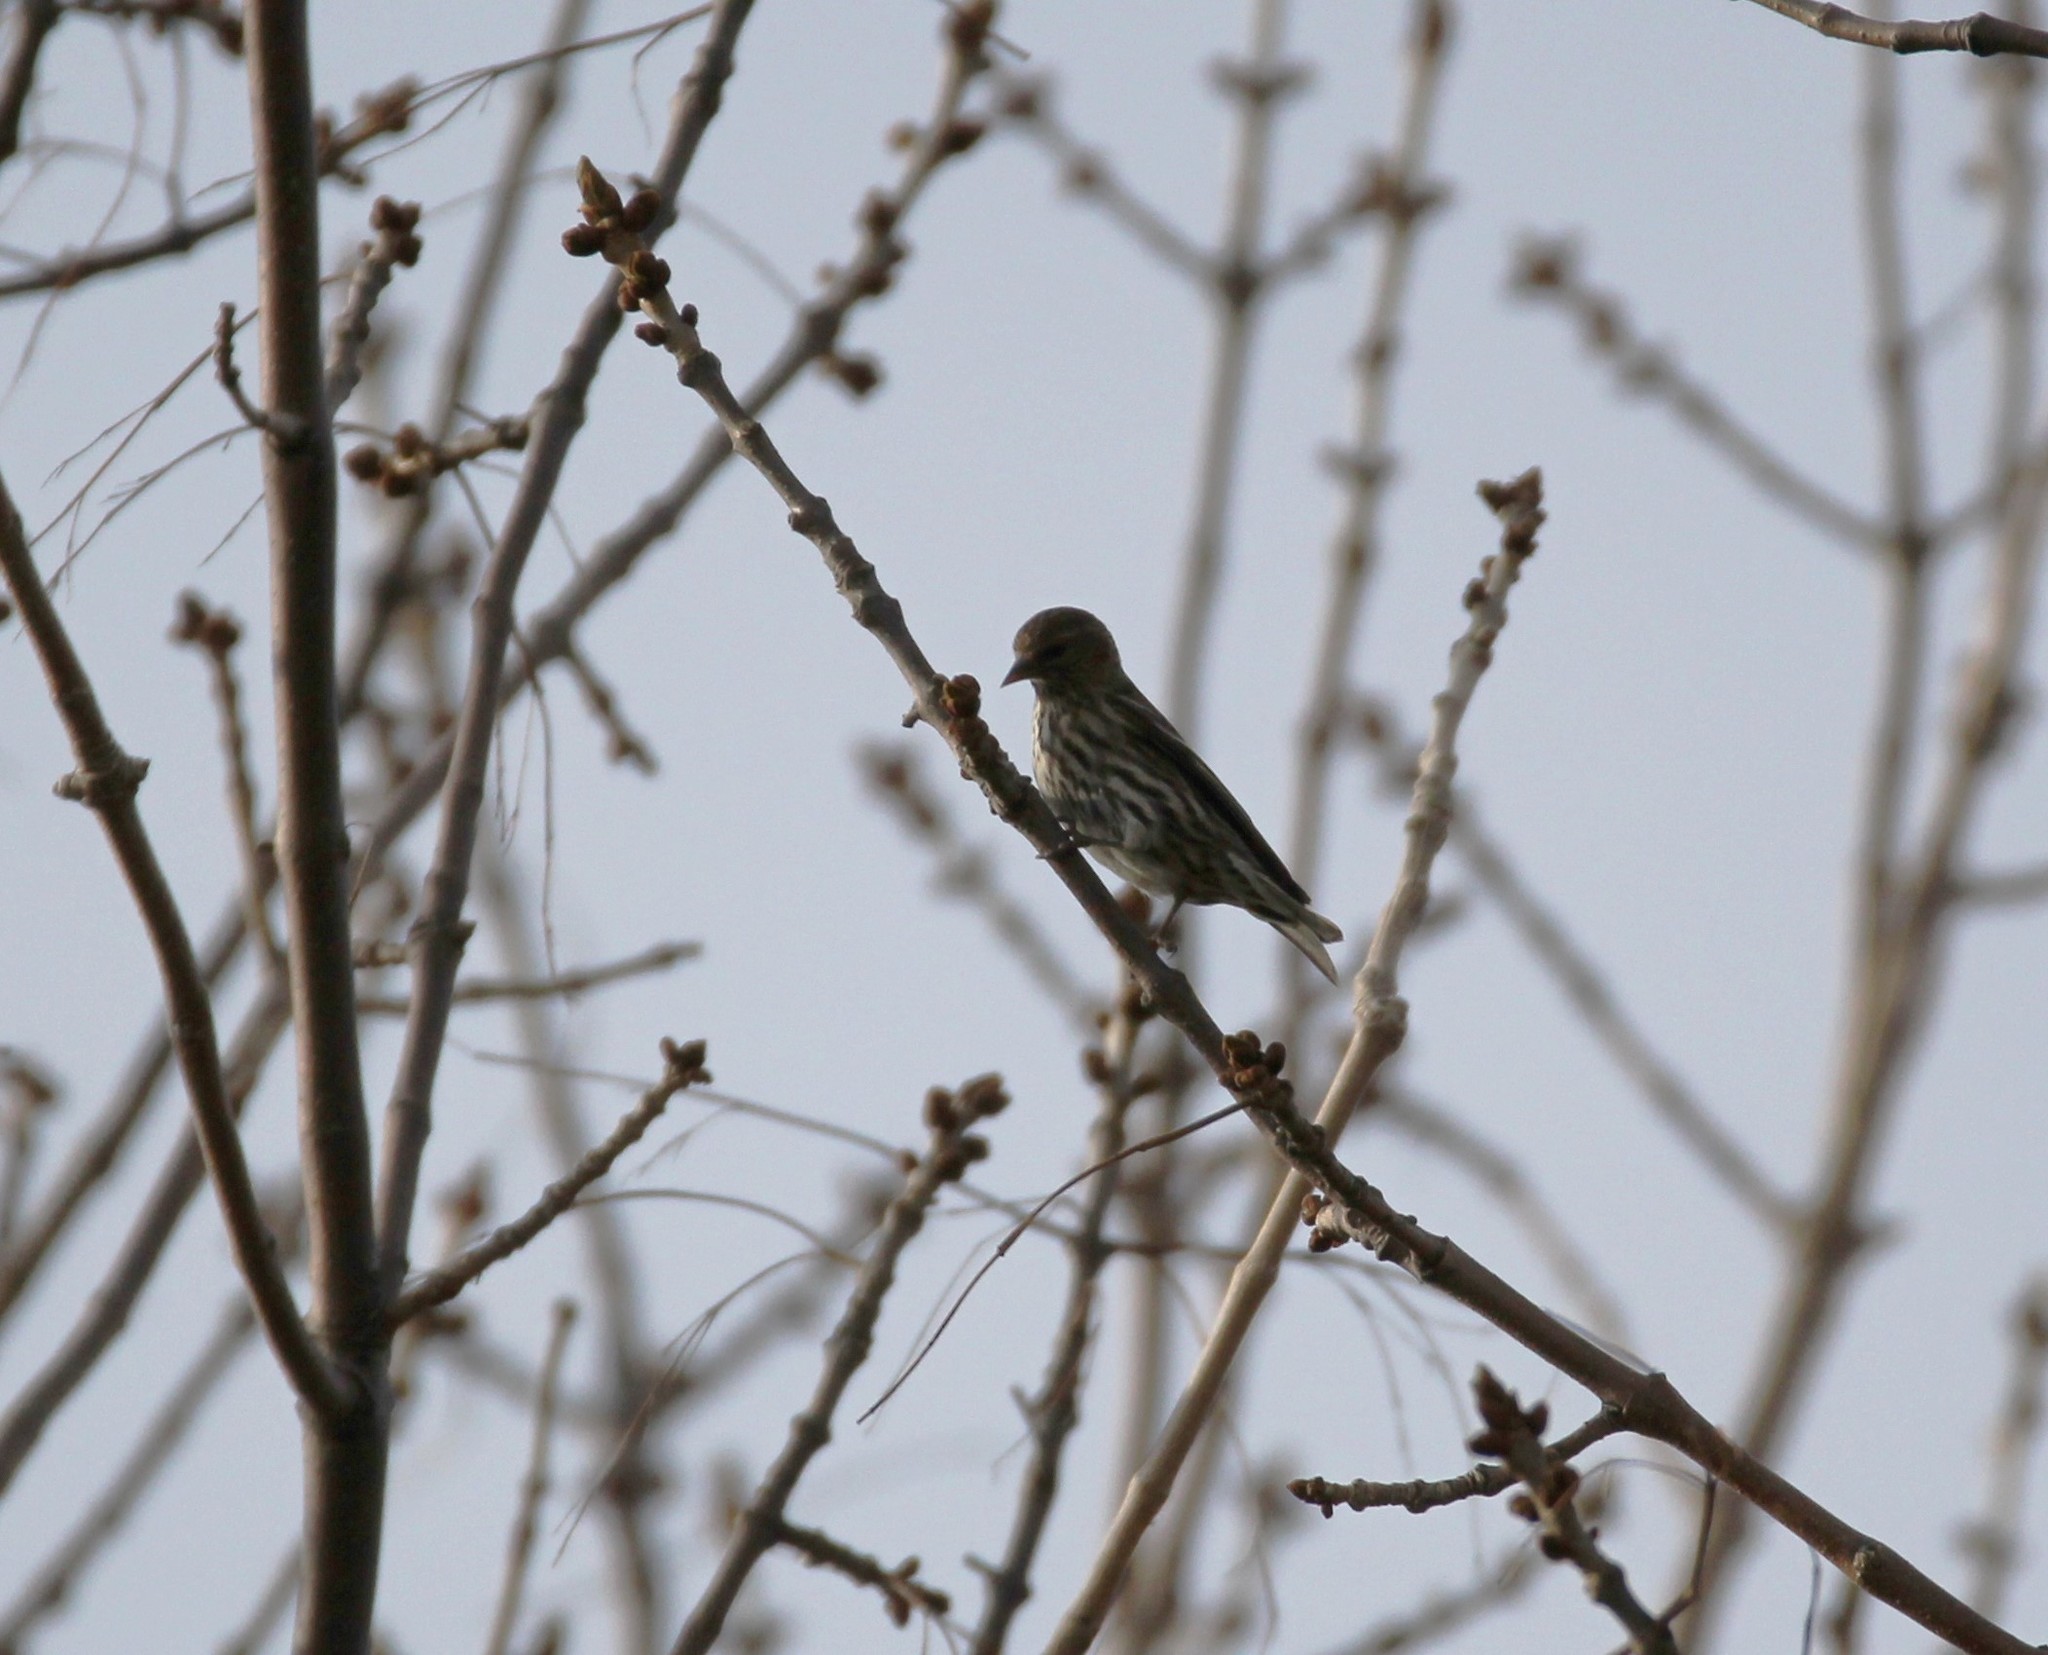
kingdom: Animalia
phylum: Chordata
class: Aves
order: Passeriformes
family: Fringillidae
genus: Spinus
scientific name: Spinus pinus
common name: Pine siskin
